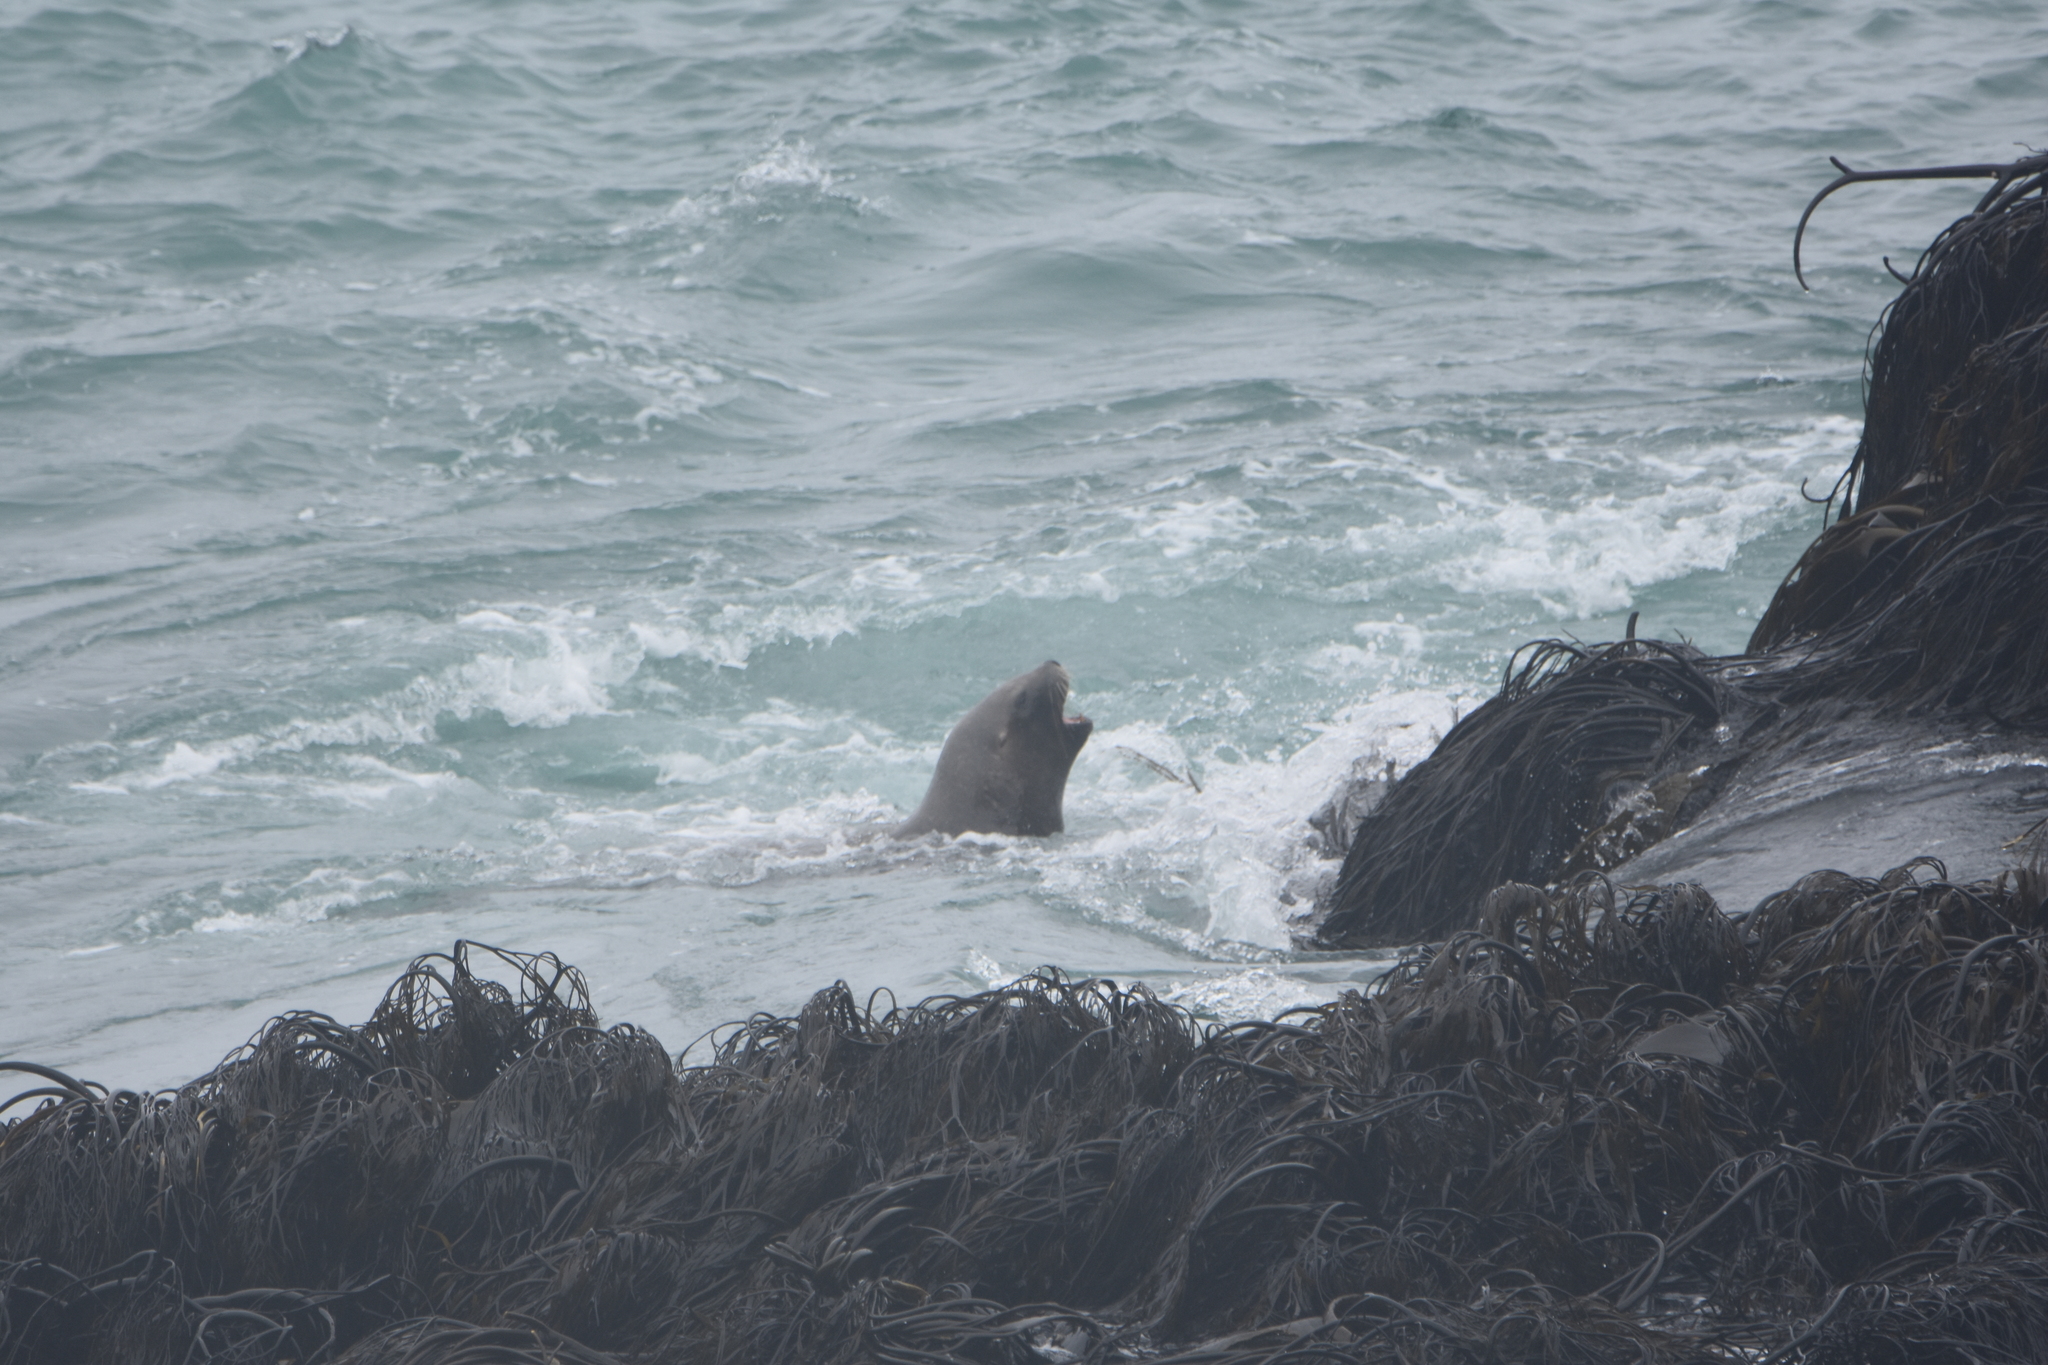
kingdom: Animalia
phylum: Chordata
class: Mammalia
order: Carnivora
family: Otariidae
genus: Otaria
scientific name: Otaria byronia
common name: South american sea lion
